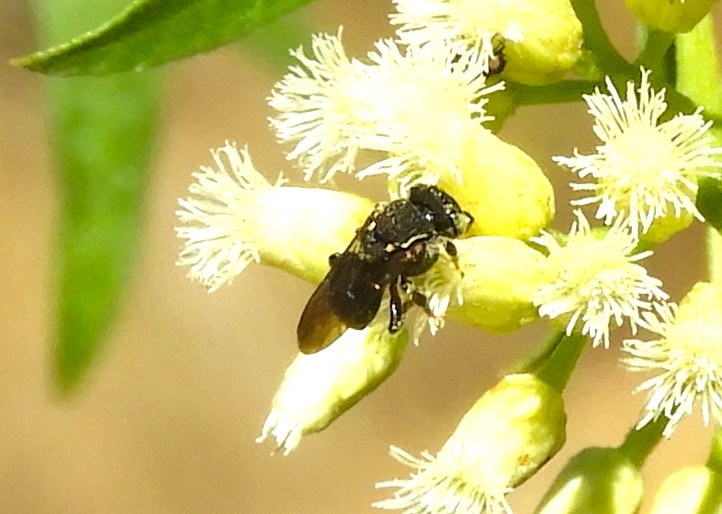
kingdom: Animalia
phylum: Arthropoda
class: Insecta
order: Hymenoptera
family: Apidae
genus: Nannotrigona
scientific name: Nannotrigona perilampoides
